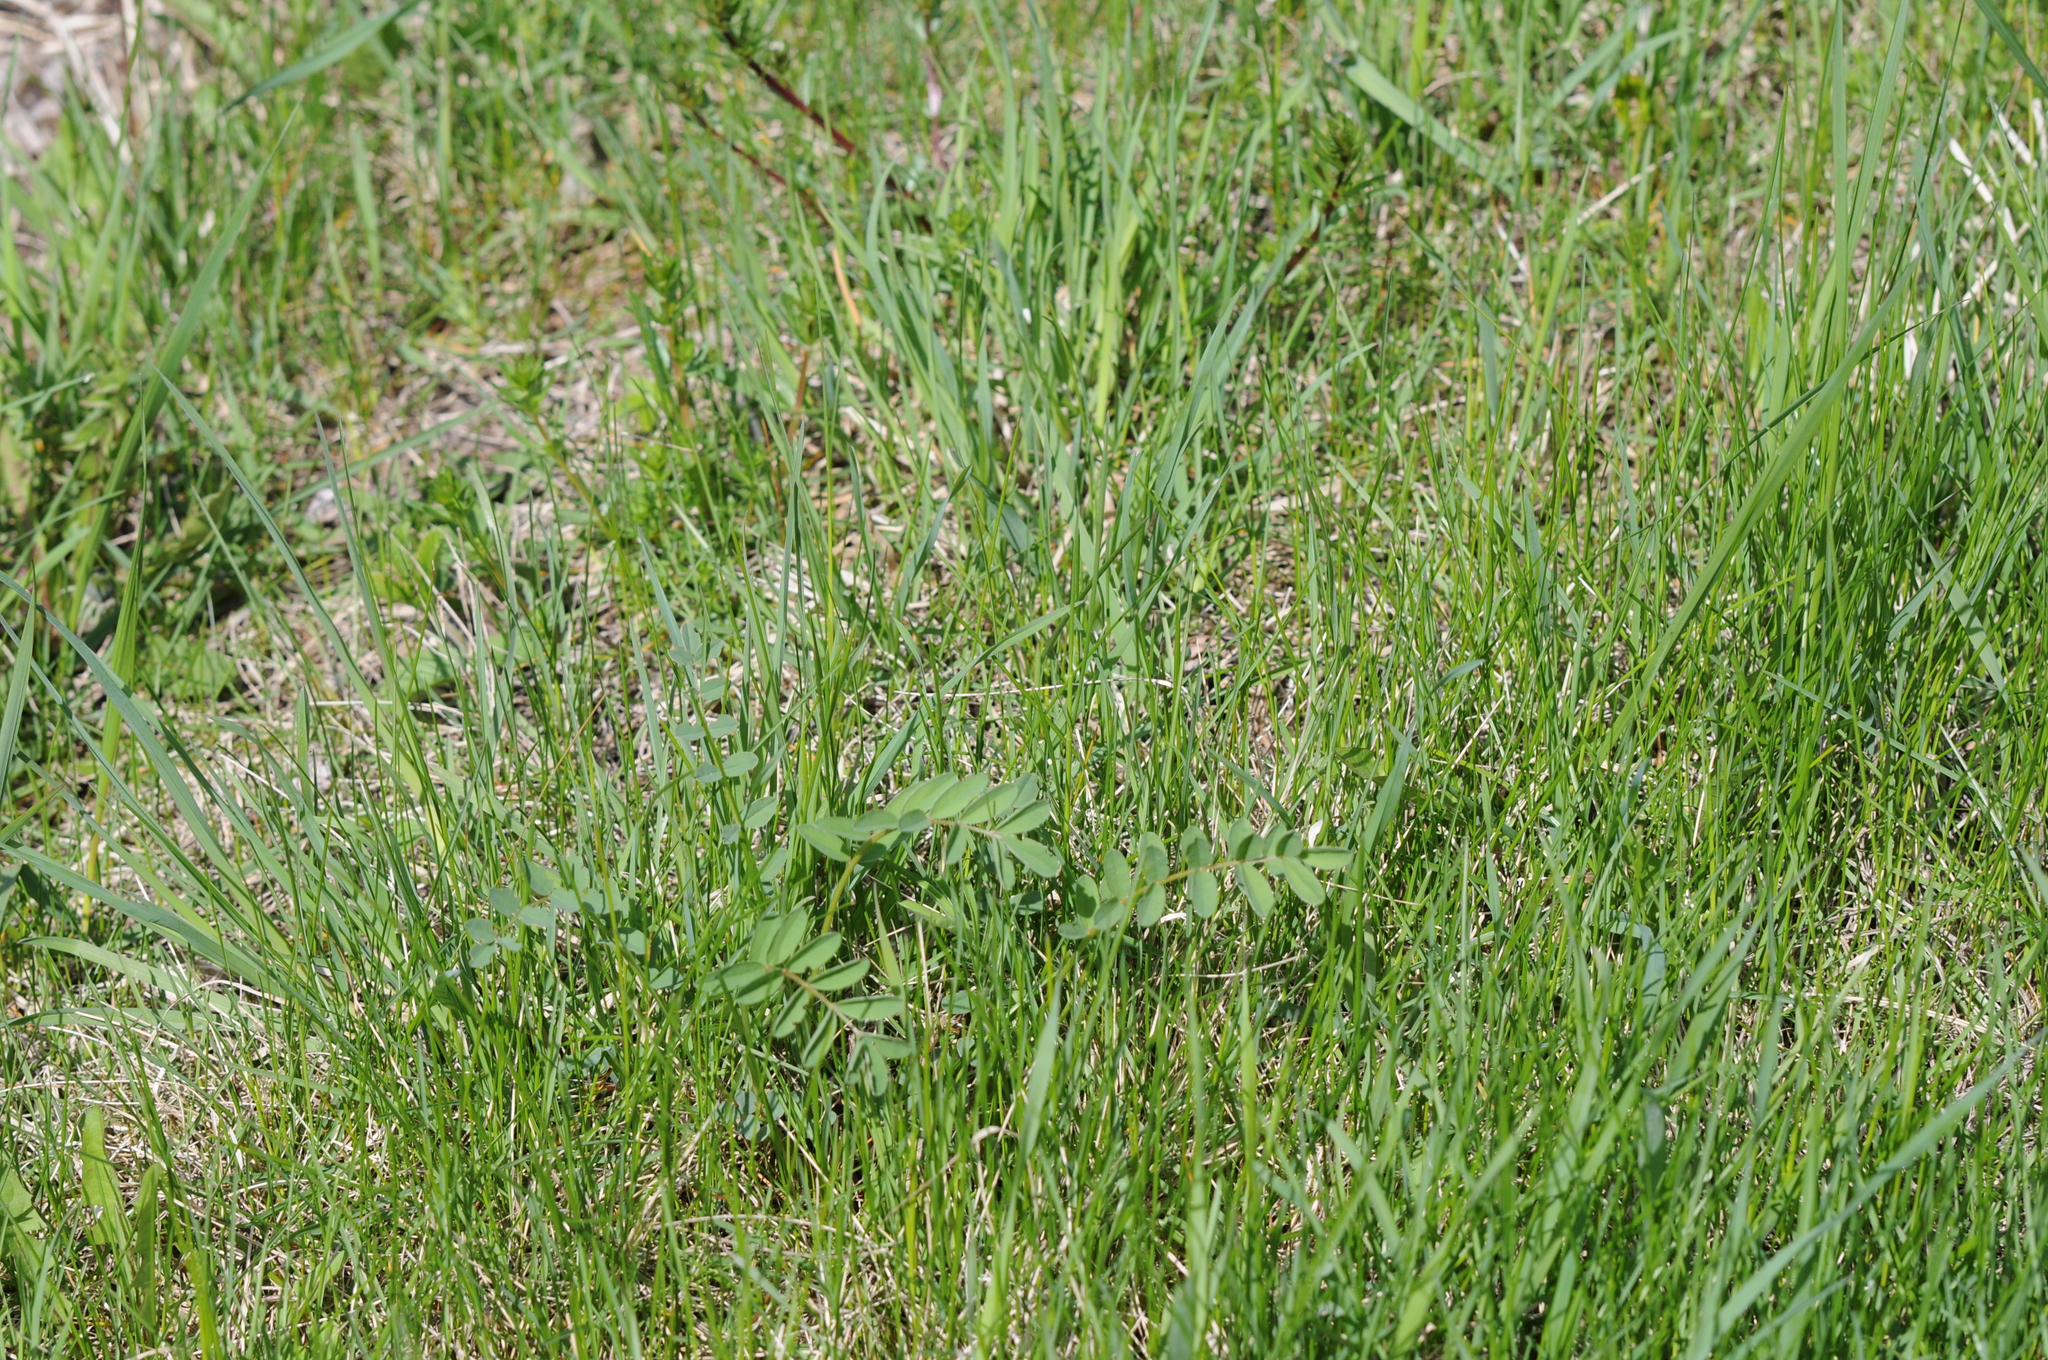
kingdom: Plantae
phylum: Tracheophyta
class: Magnoliopsida
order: Fabales
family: Fabaceae
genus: Onobrychis
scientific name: Onobrychis arenaria
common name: Sand esparcet
